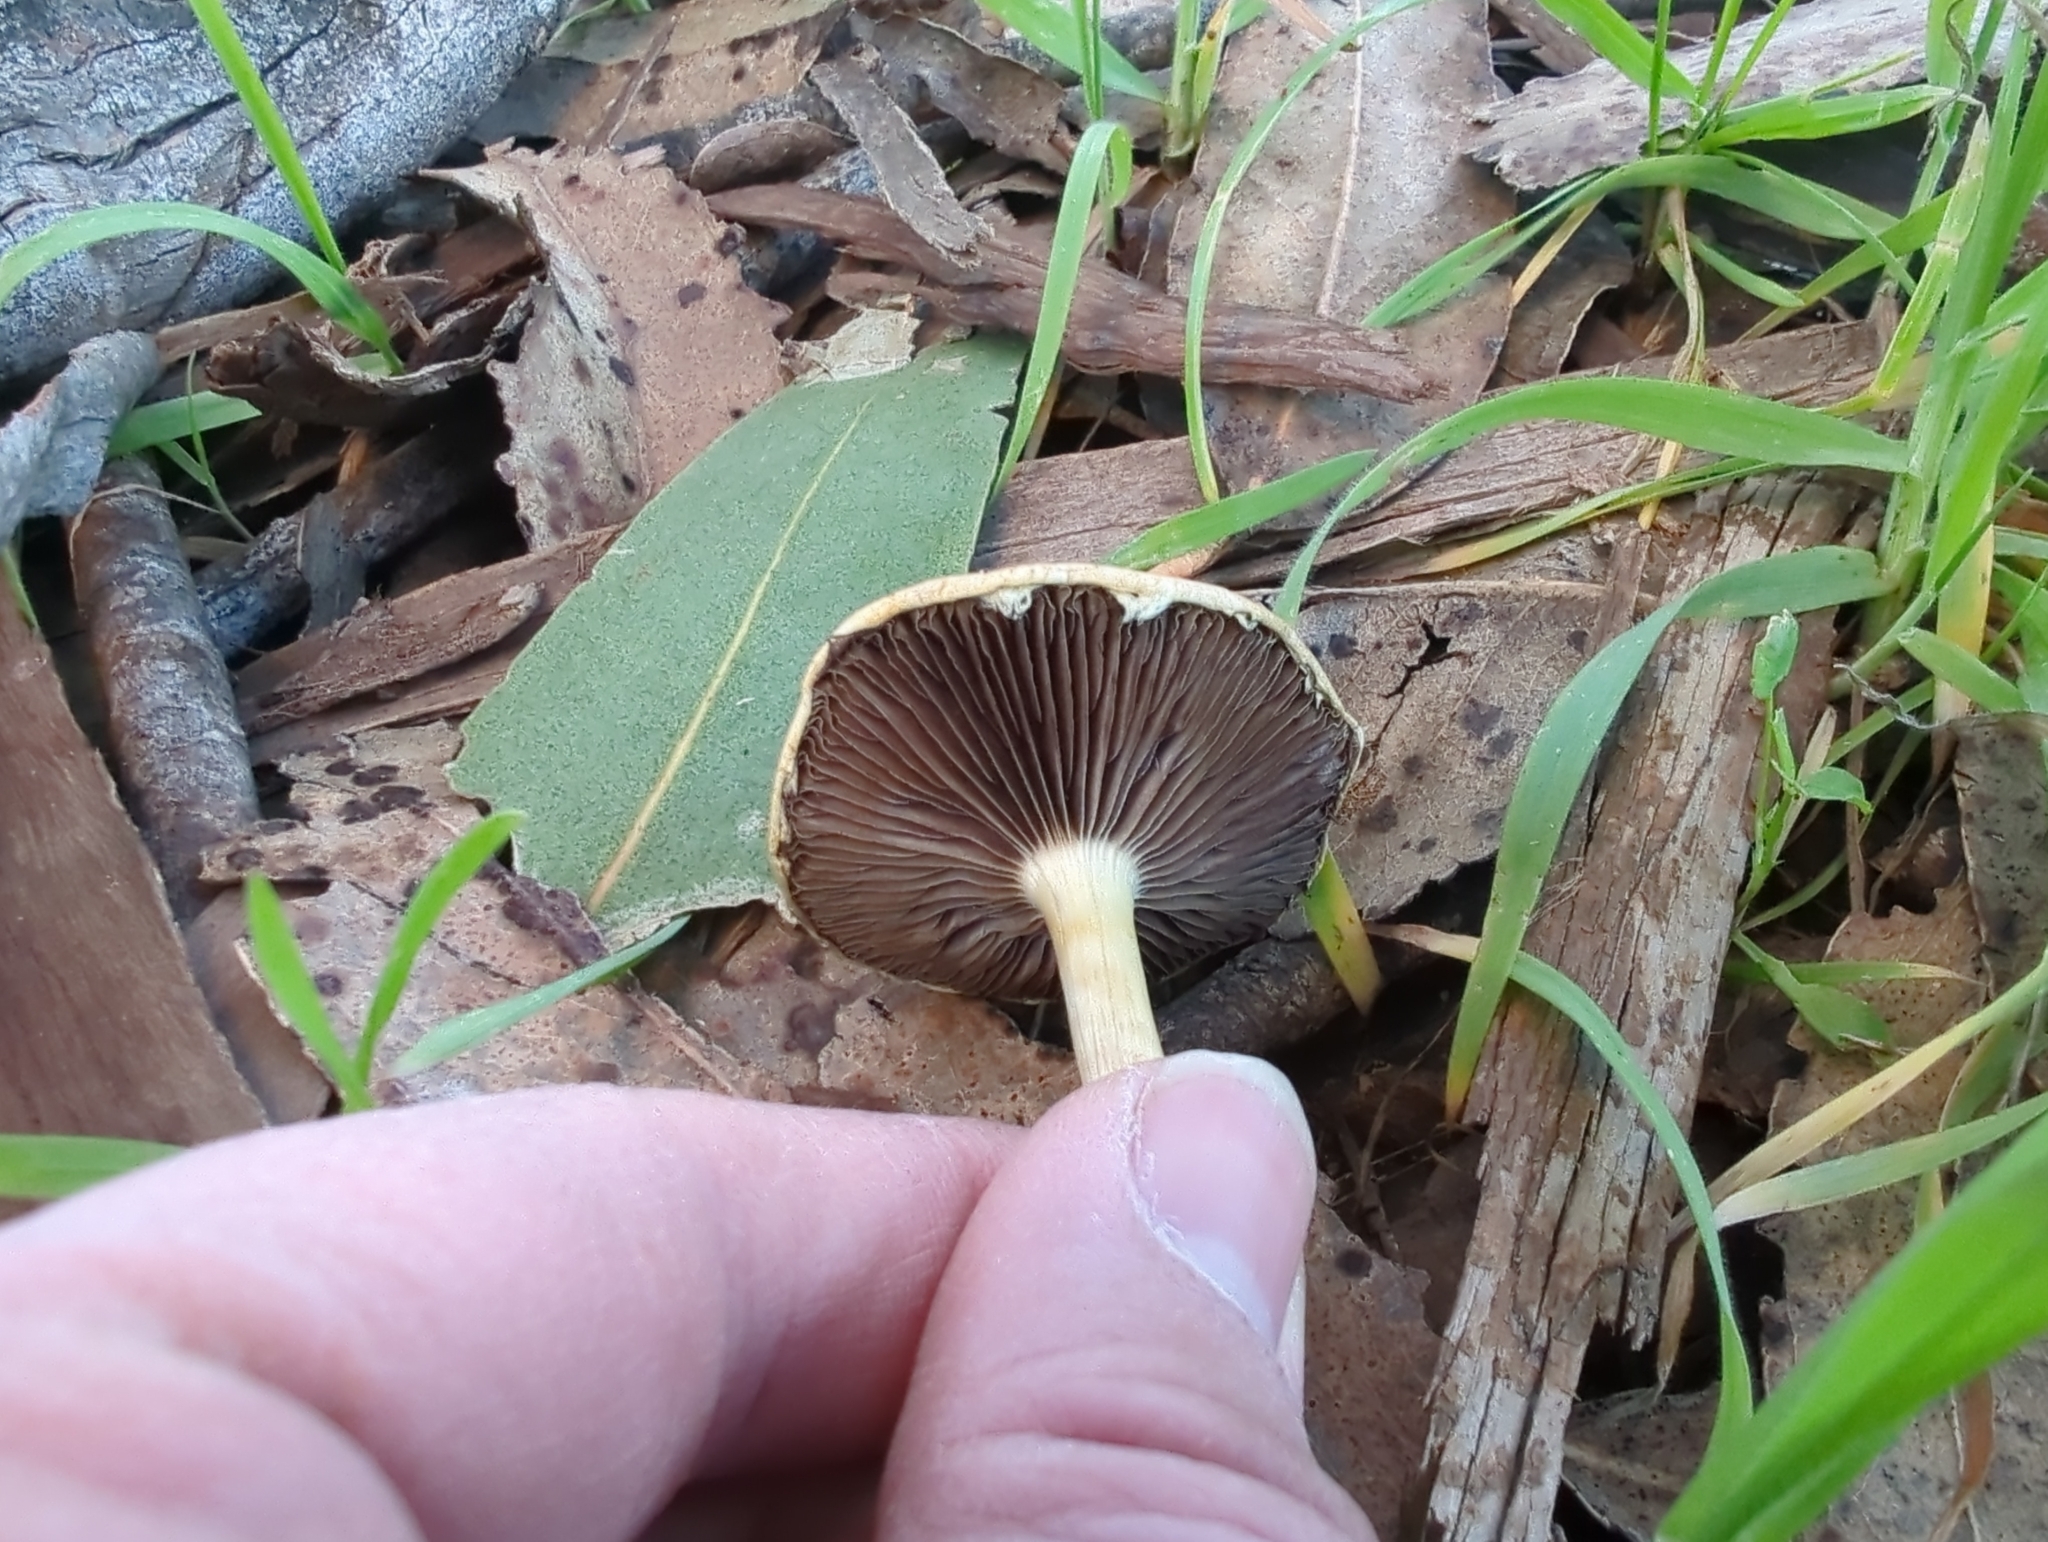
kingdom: Fungi
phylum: Basidiomycota
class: Agaricomycetes
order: Agaricales
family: Strophariaceae
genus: Leratiomyces
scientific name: Leratiomyces percevalii
